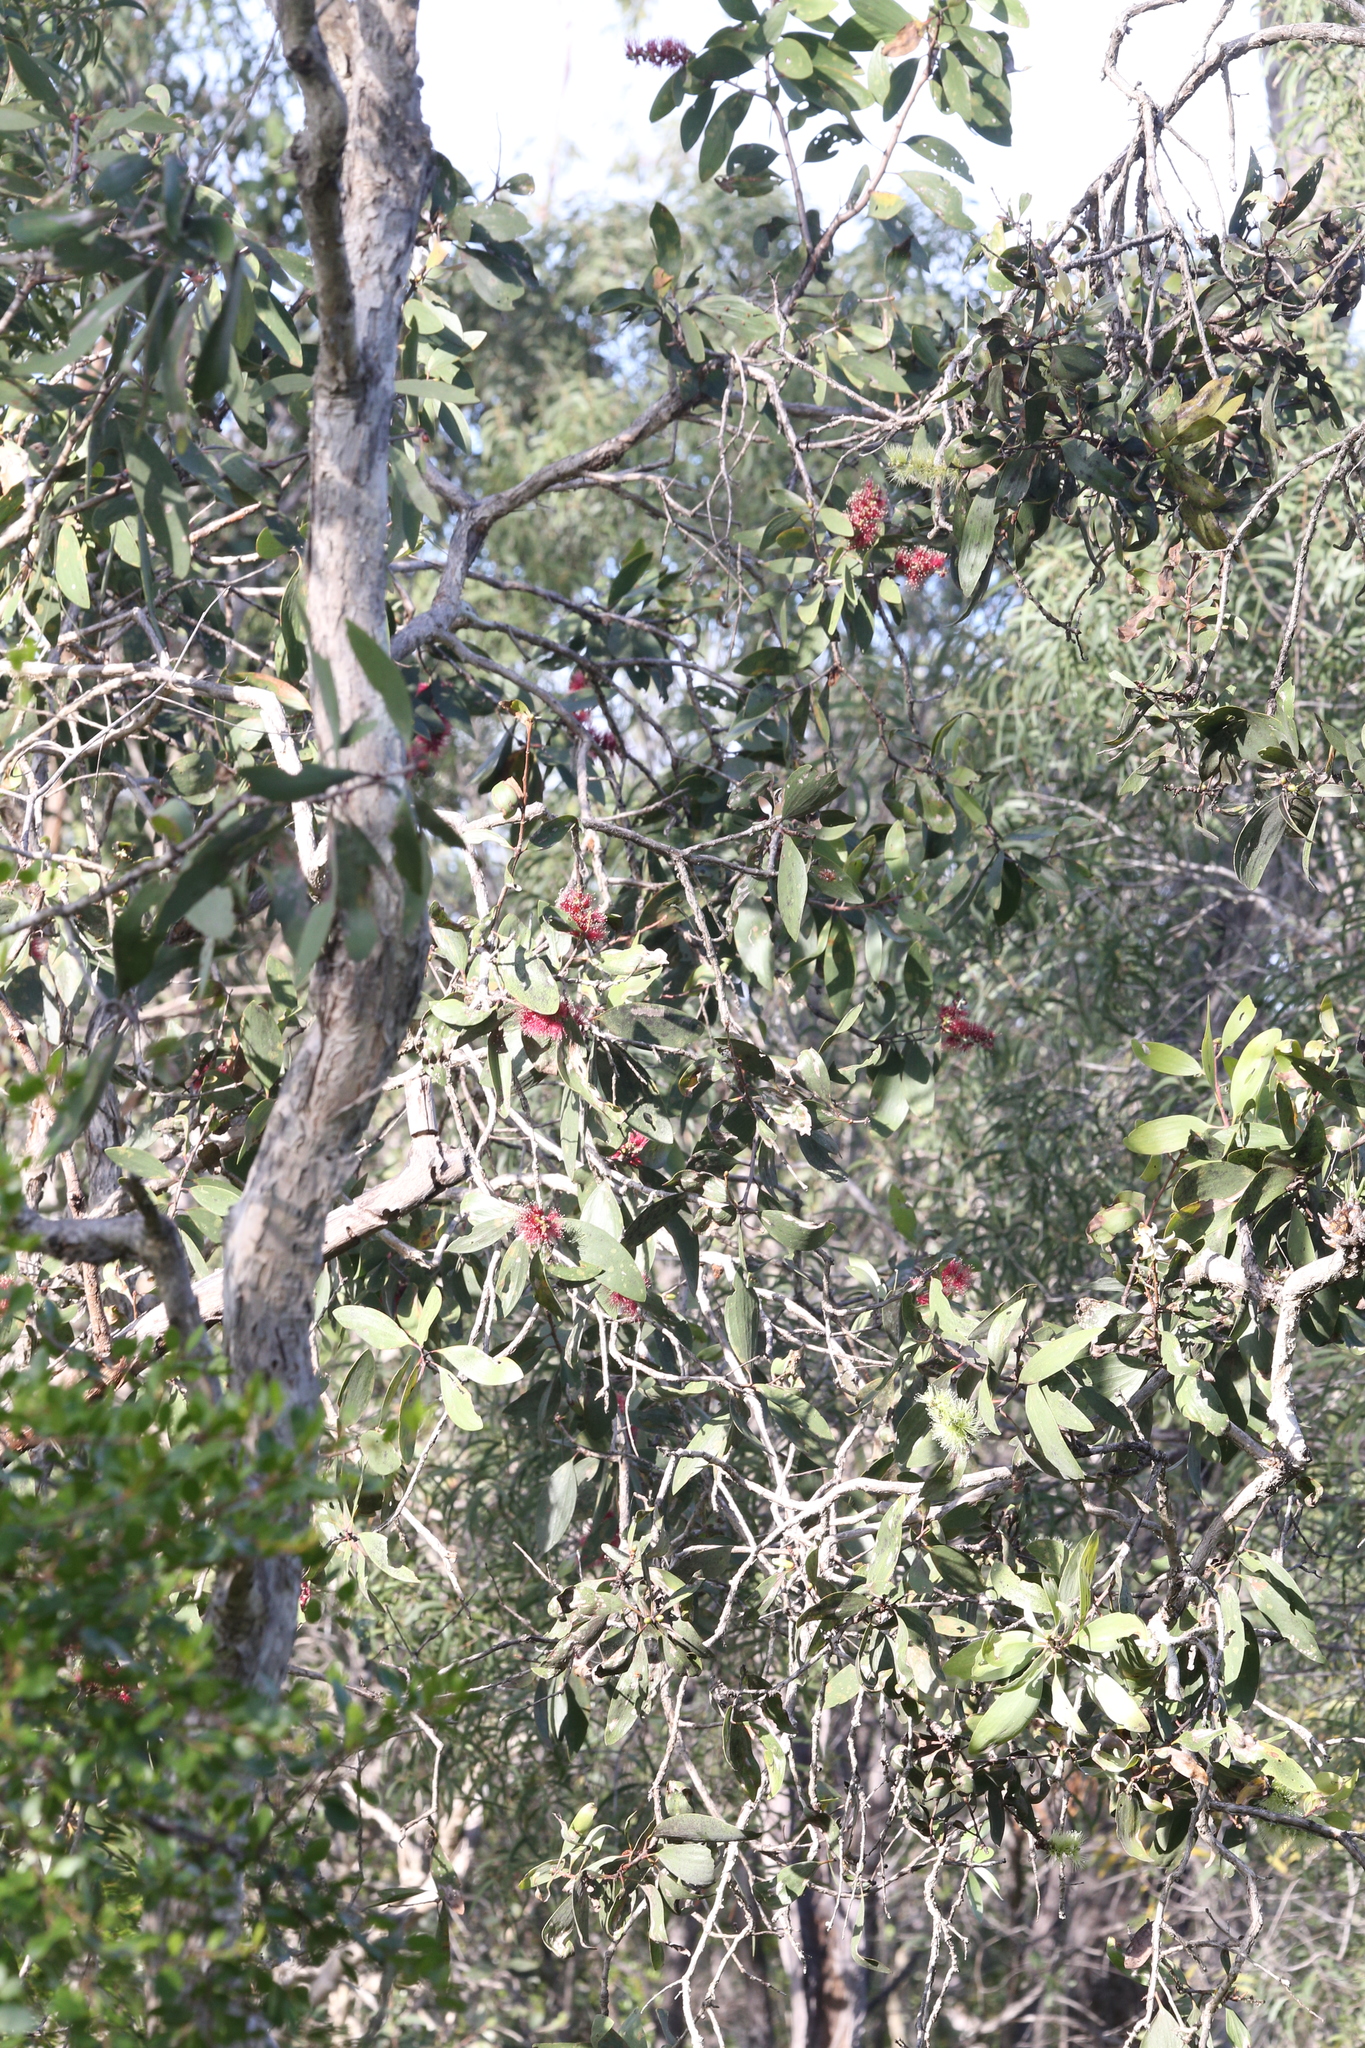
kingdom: Plantae
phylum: Tracheophyta
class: Magnoliopsida
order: Myrtales
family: Myrtaceae
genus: Melaleuca
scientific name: Melaleuca viridiflora
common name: Brown-leaved paperbark
